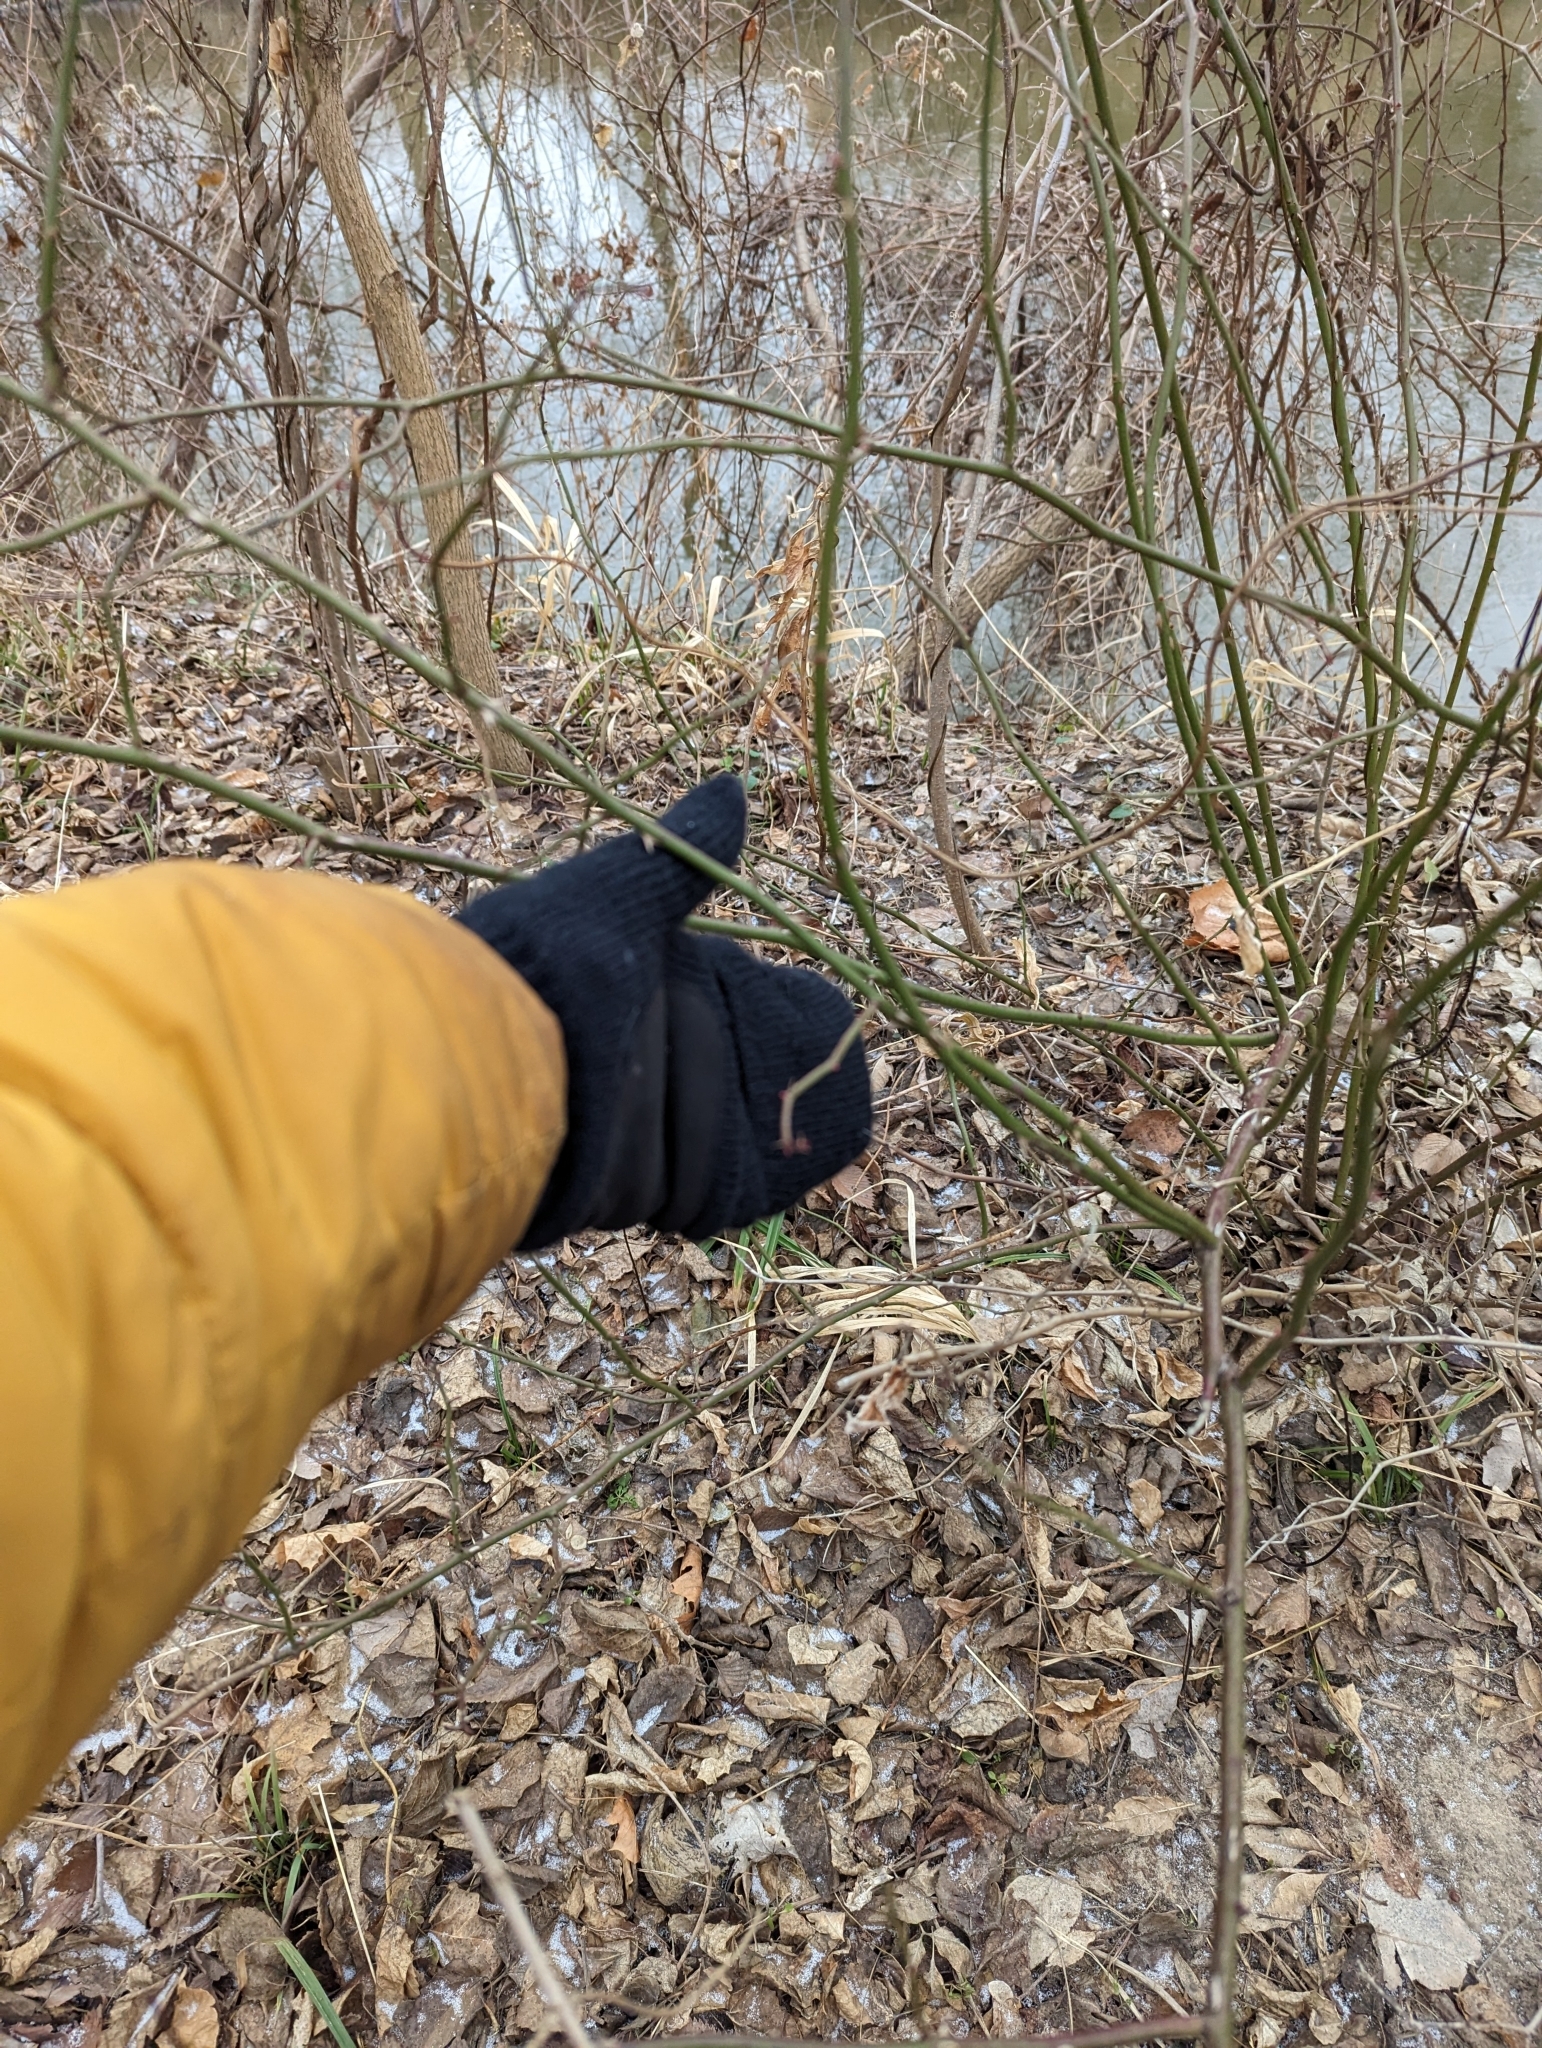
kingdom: Plantae
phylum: Tracheophyta
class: Magnoliopsida
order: Rosales
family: Rosaceae
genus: Rosa
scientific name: Rosa multiflora
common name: Multiflora rose
